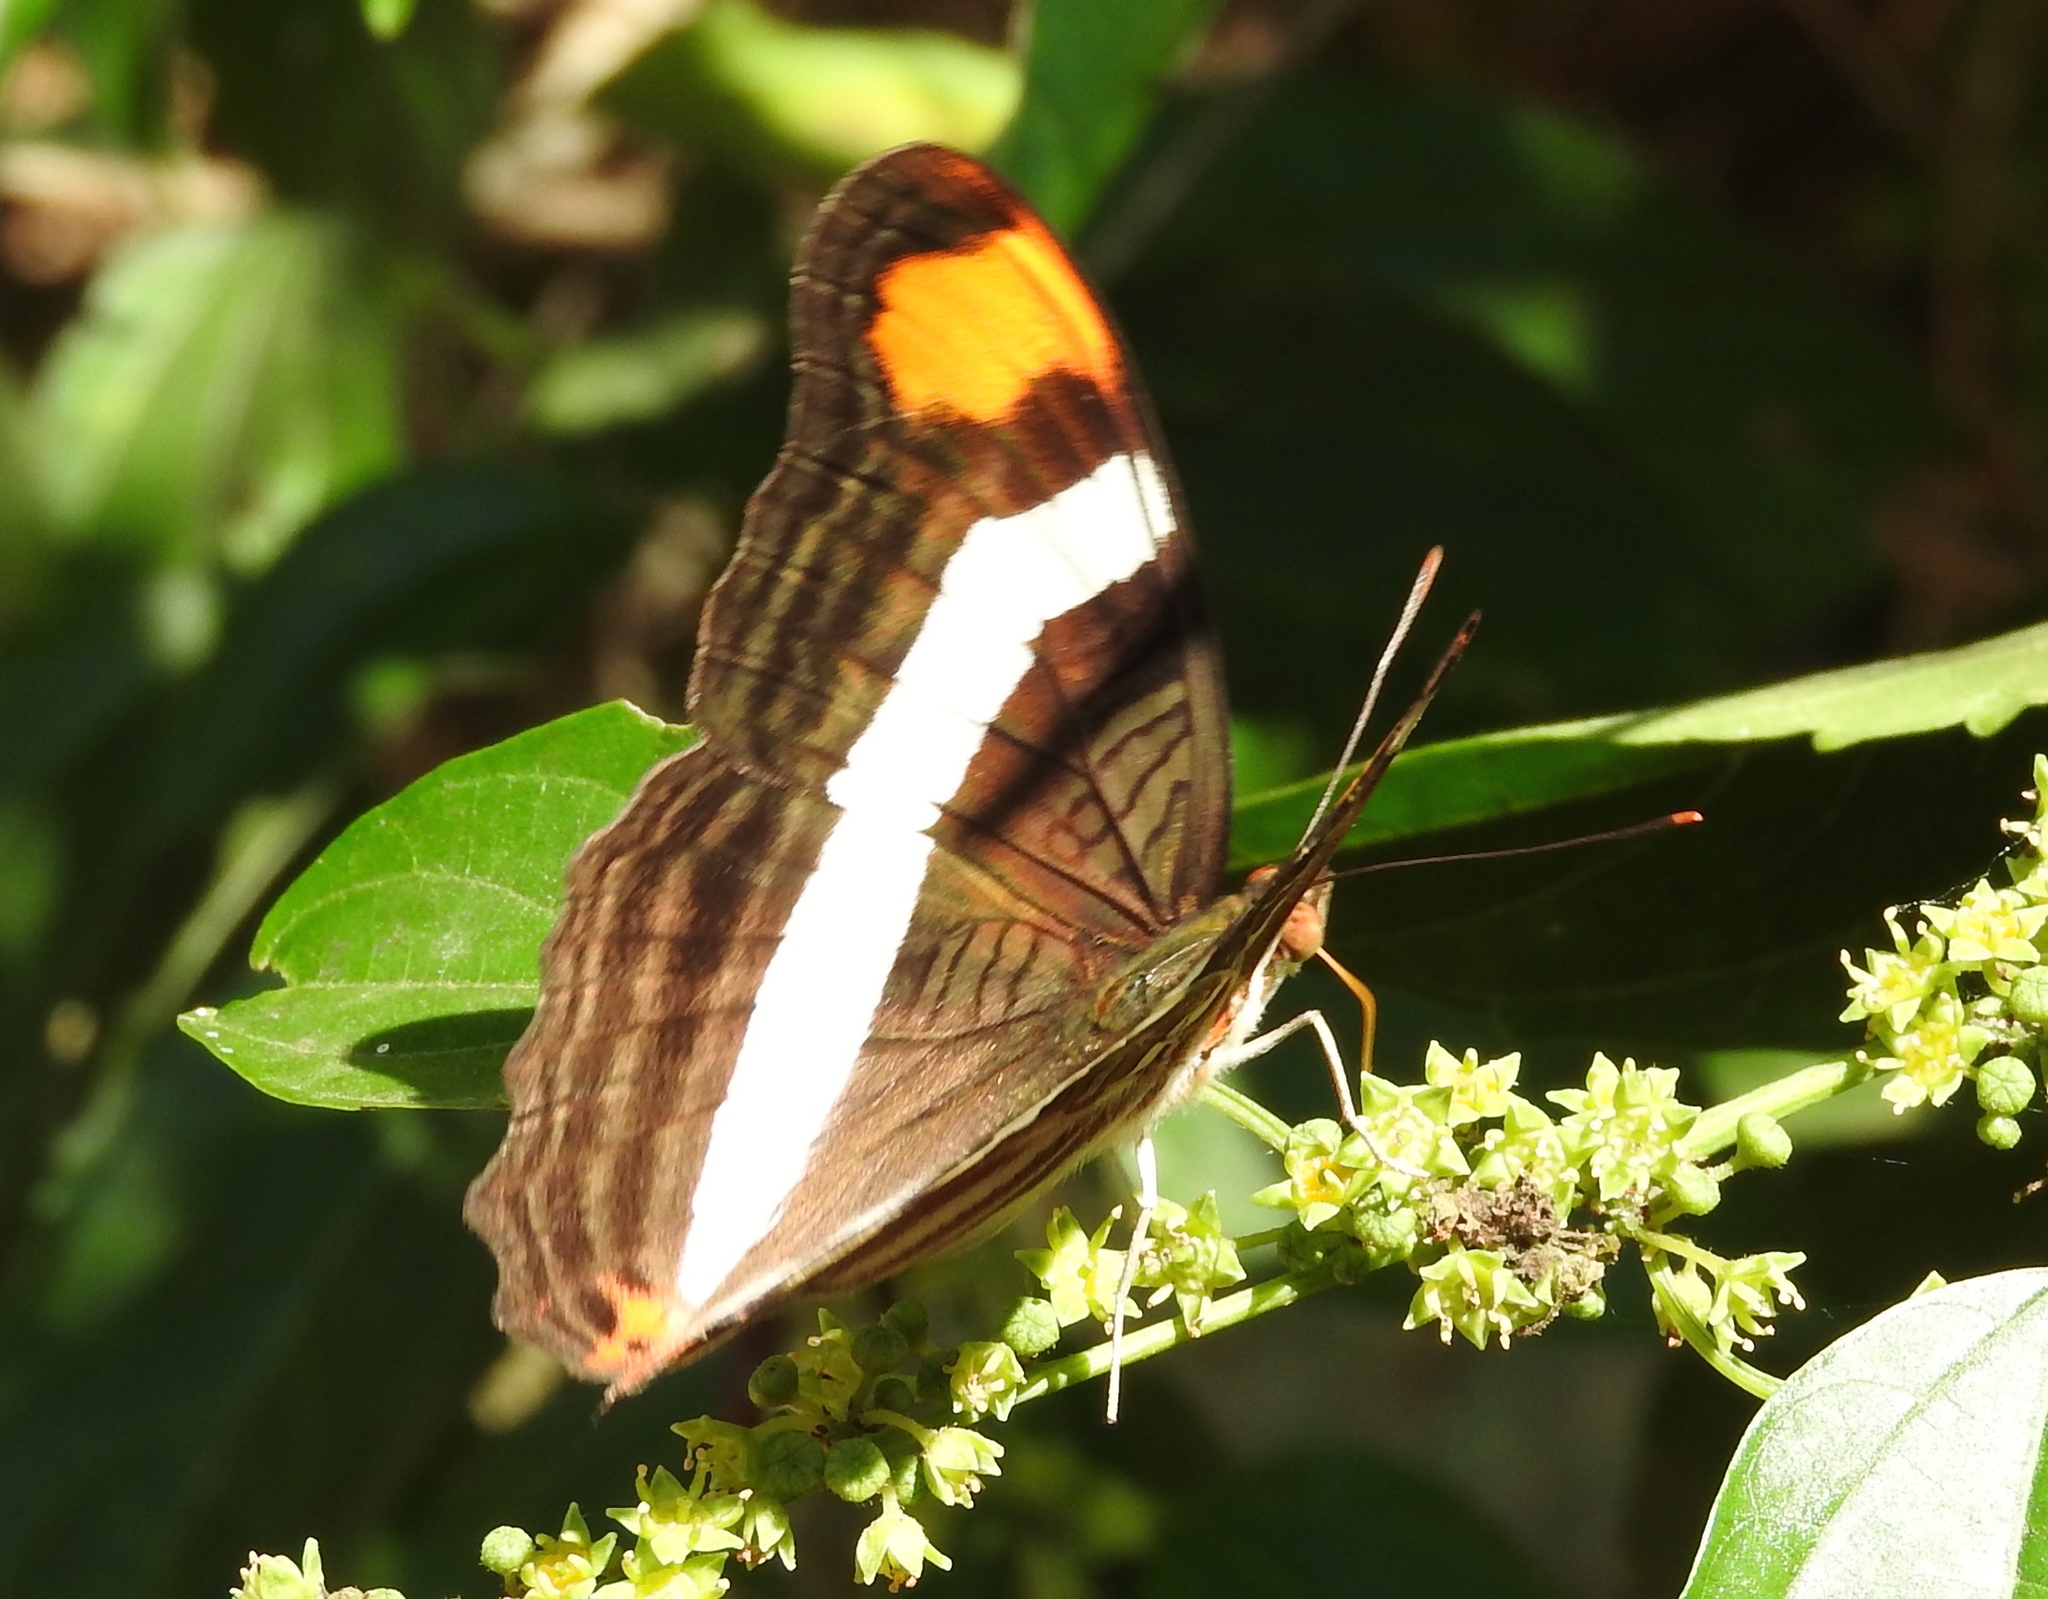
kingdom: Animalia
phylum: Arthropoda
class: Insecta
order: Lepidoptera
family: Nymphalidae
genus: Limenitis
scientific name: Limenitis fessonia
